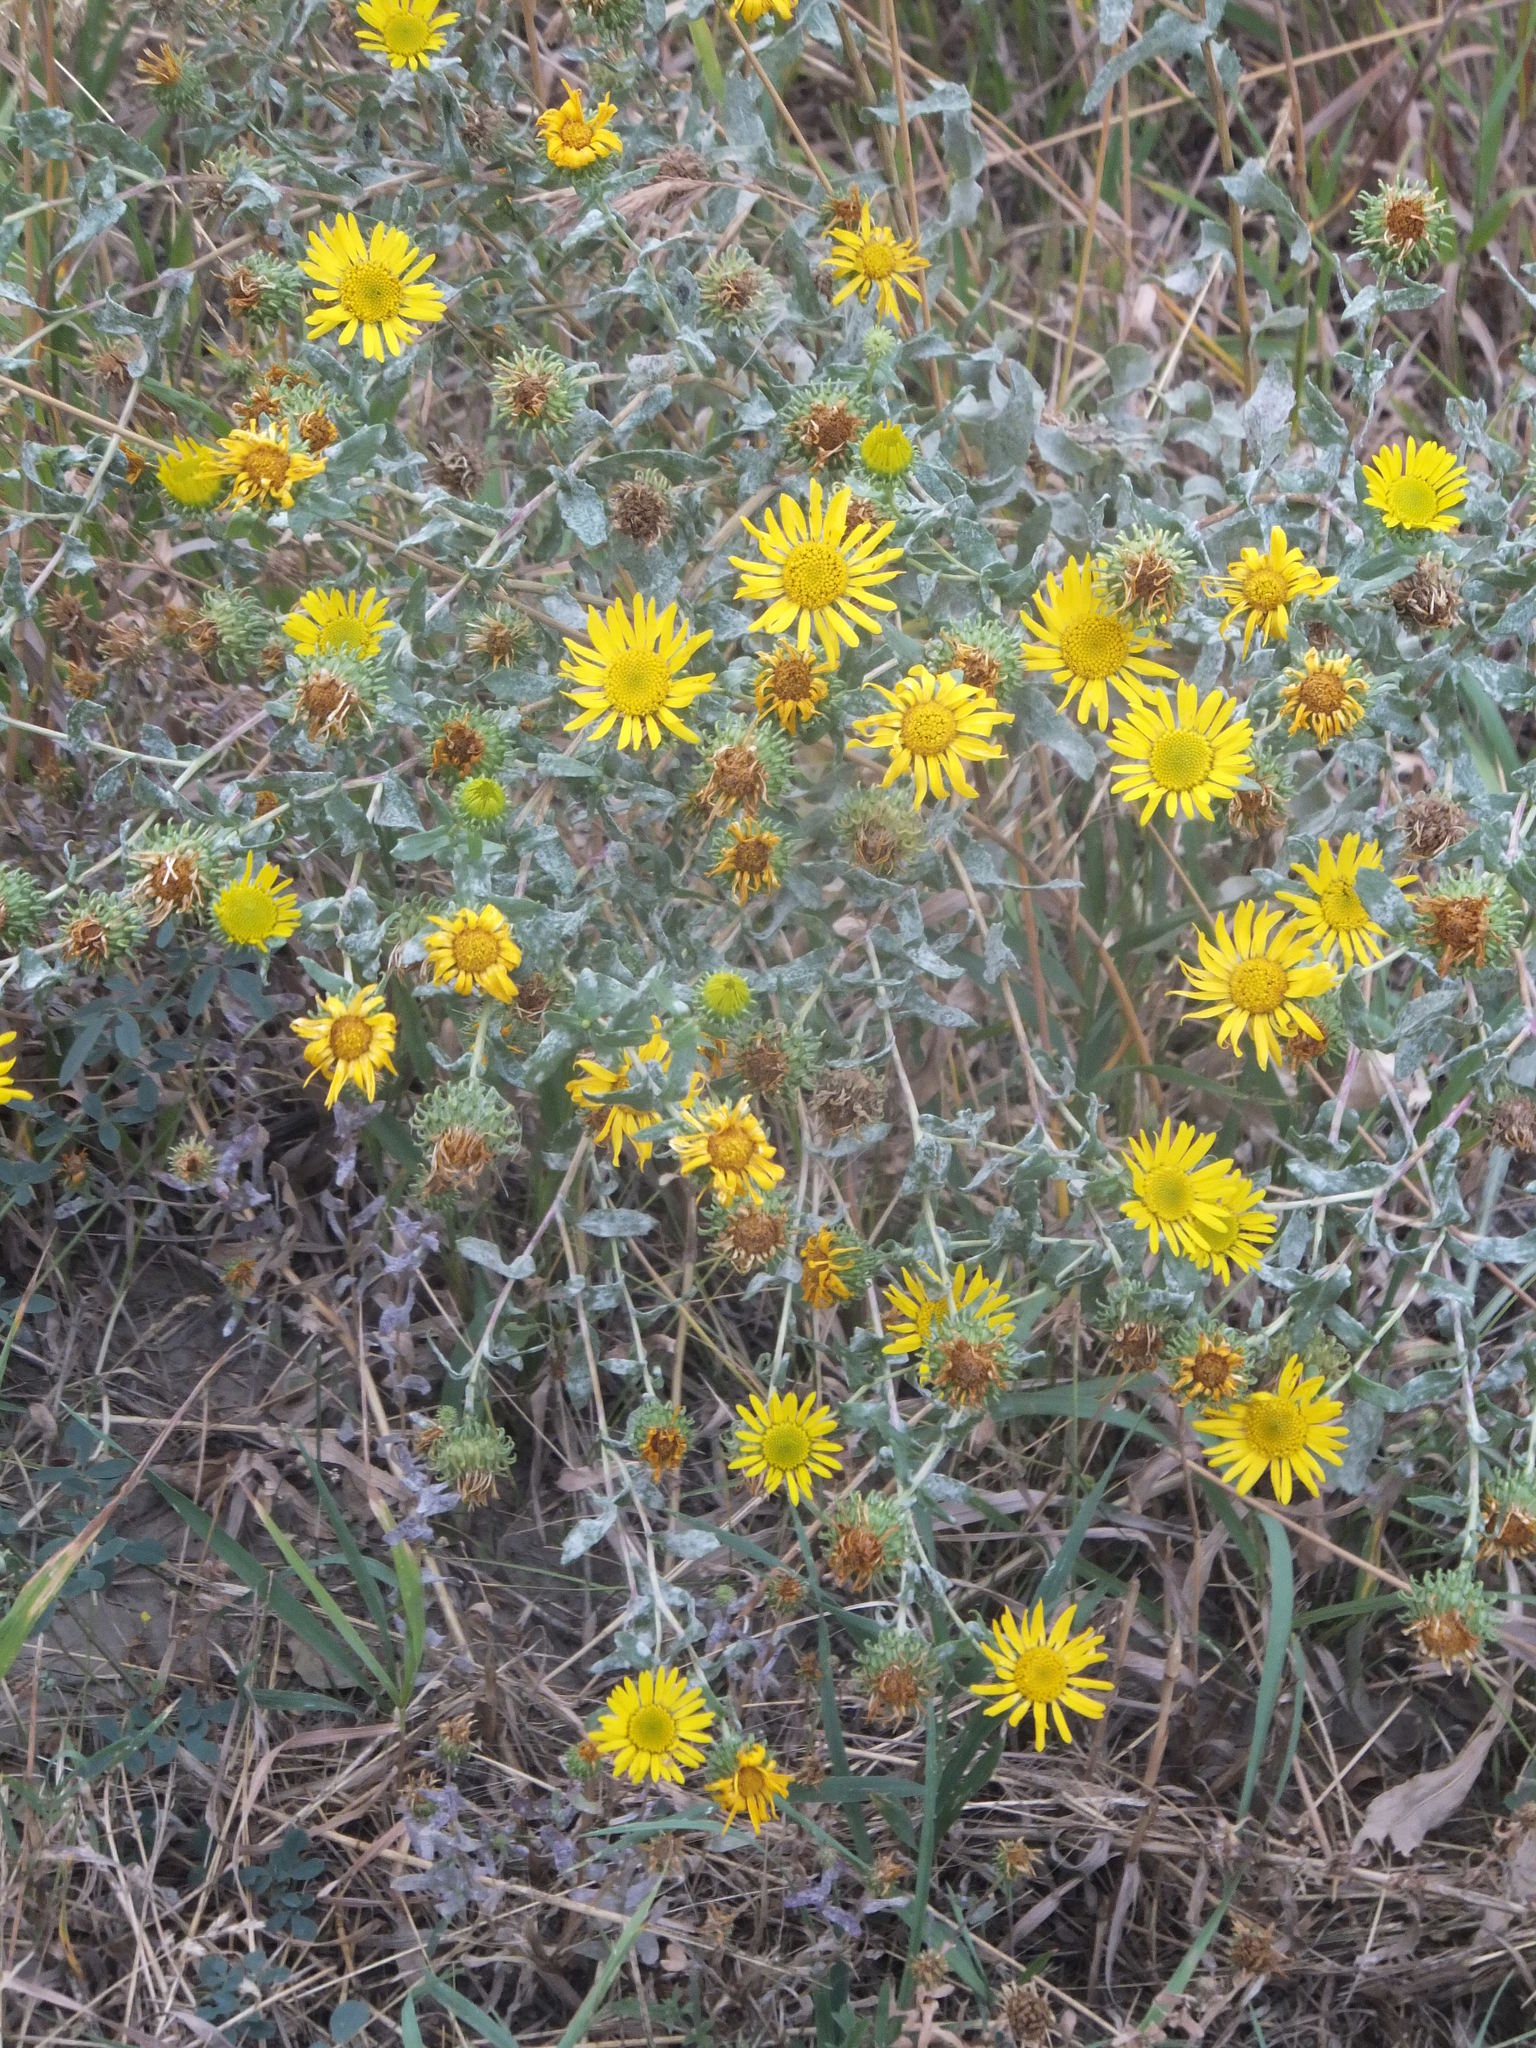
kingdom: Plantae
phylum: Tracheophyta
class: Magnoliopsida
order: Asterales
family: Asteraceae
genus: Grindelia
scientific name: Grindelia squarrosa
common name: Curly-cup gumweed
